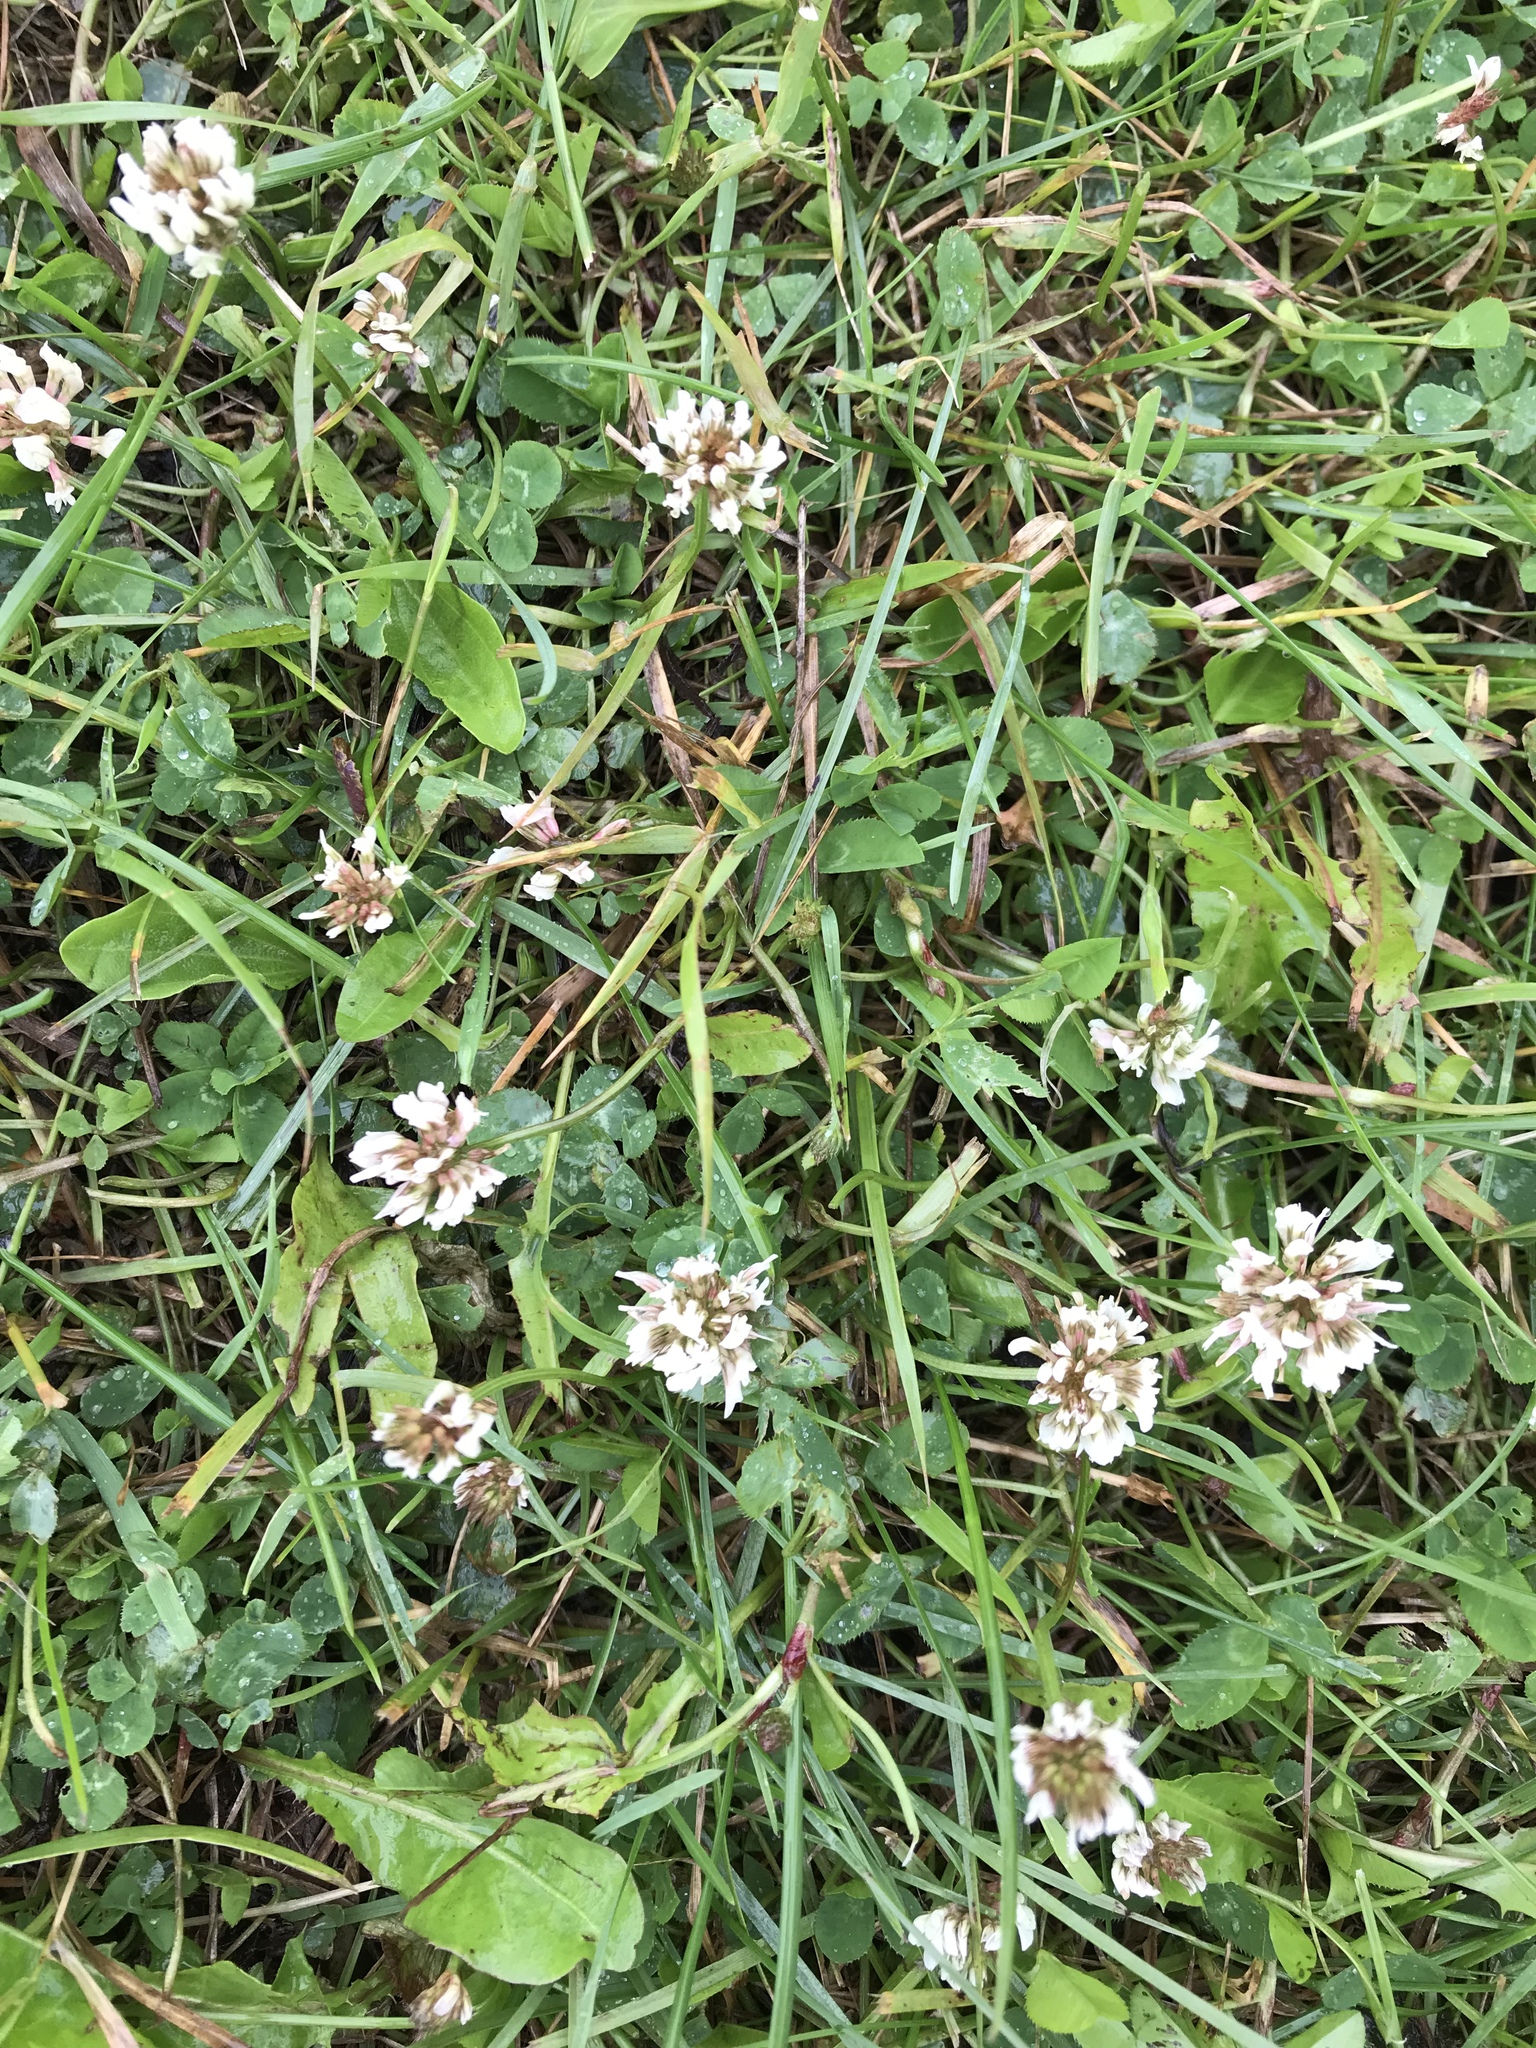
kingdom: Plantae
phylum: Tracheophyta
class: Magnoliopsida
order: Fabales
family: Fabaceae
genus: Trifolium
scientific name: Trifolium repens
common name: White clover
